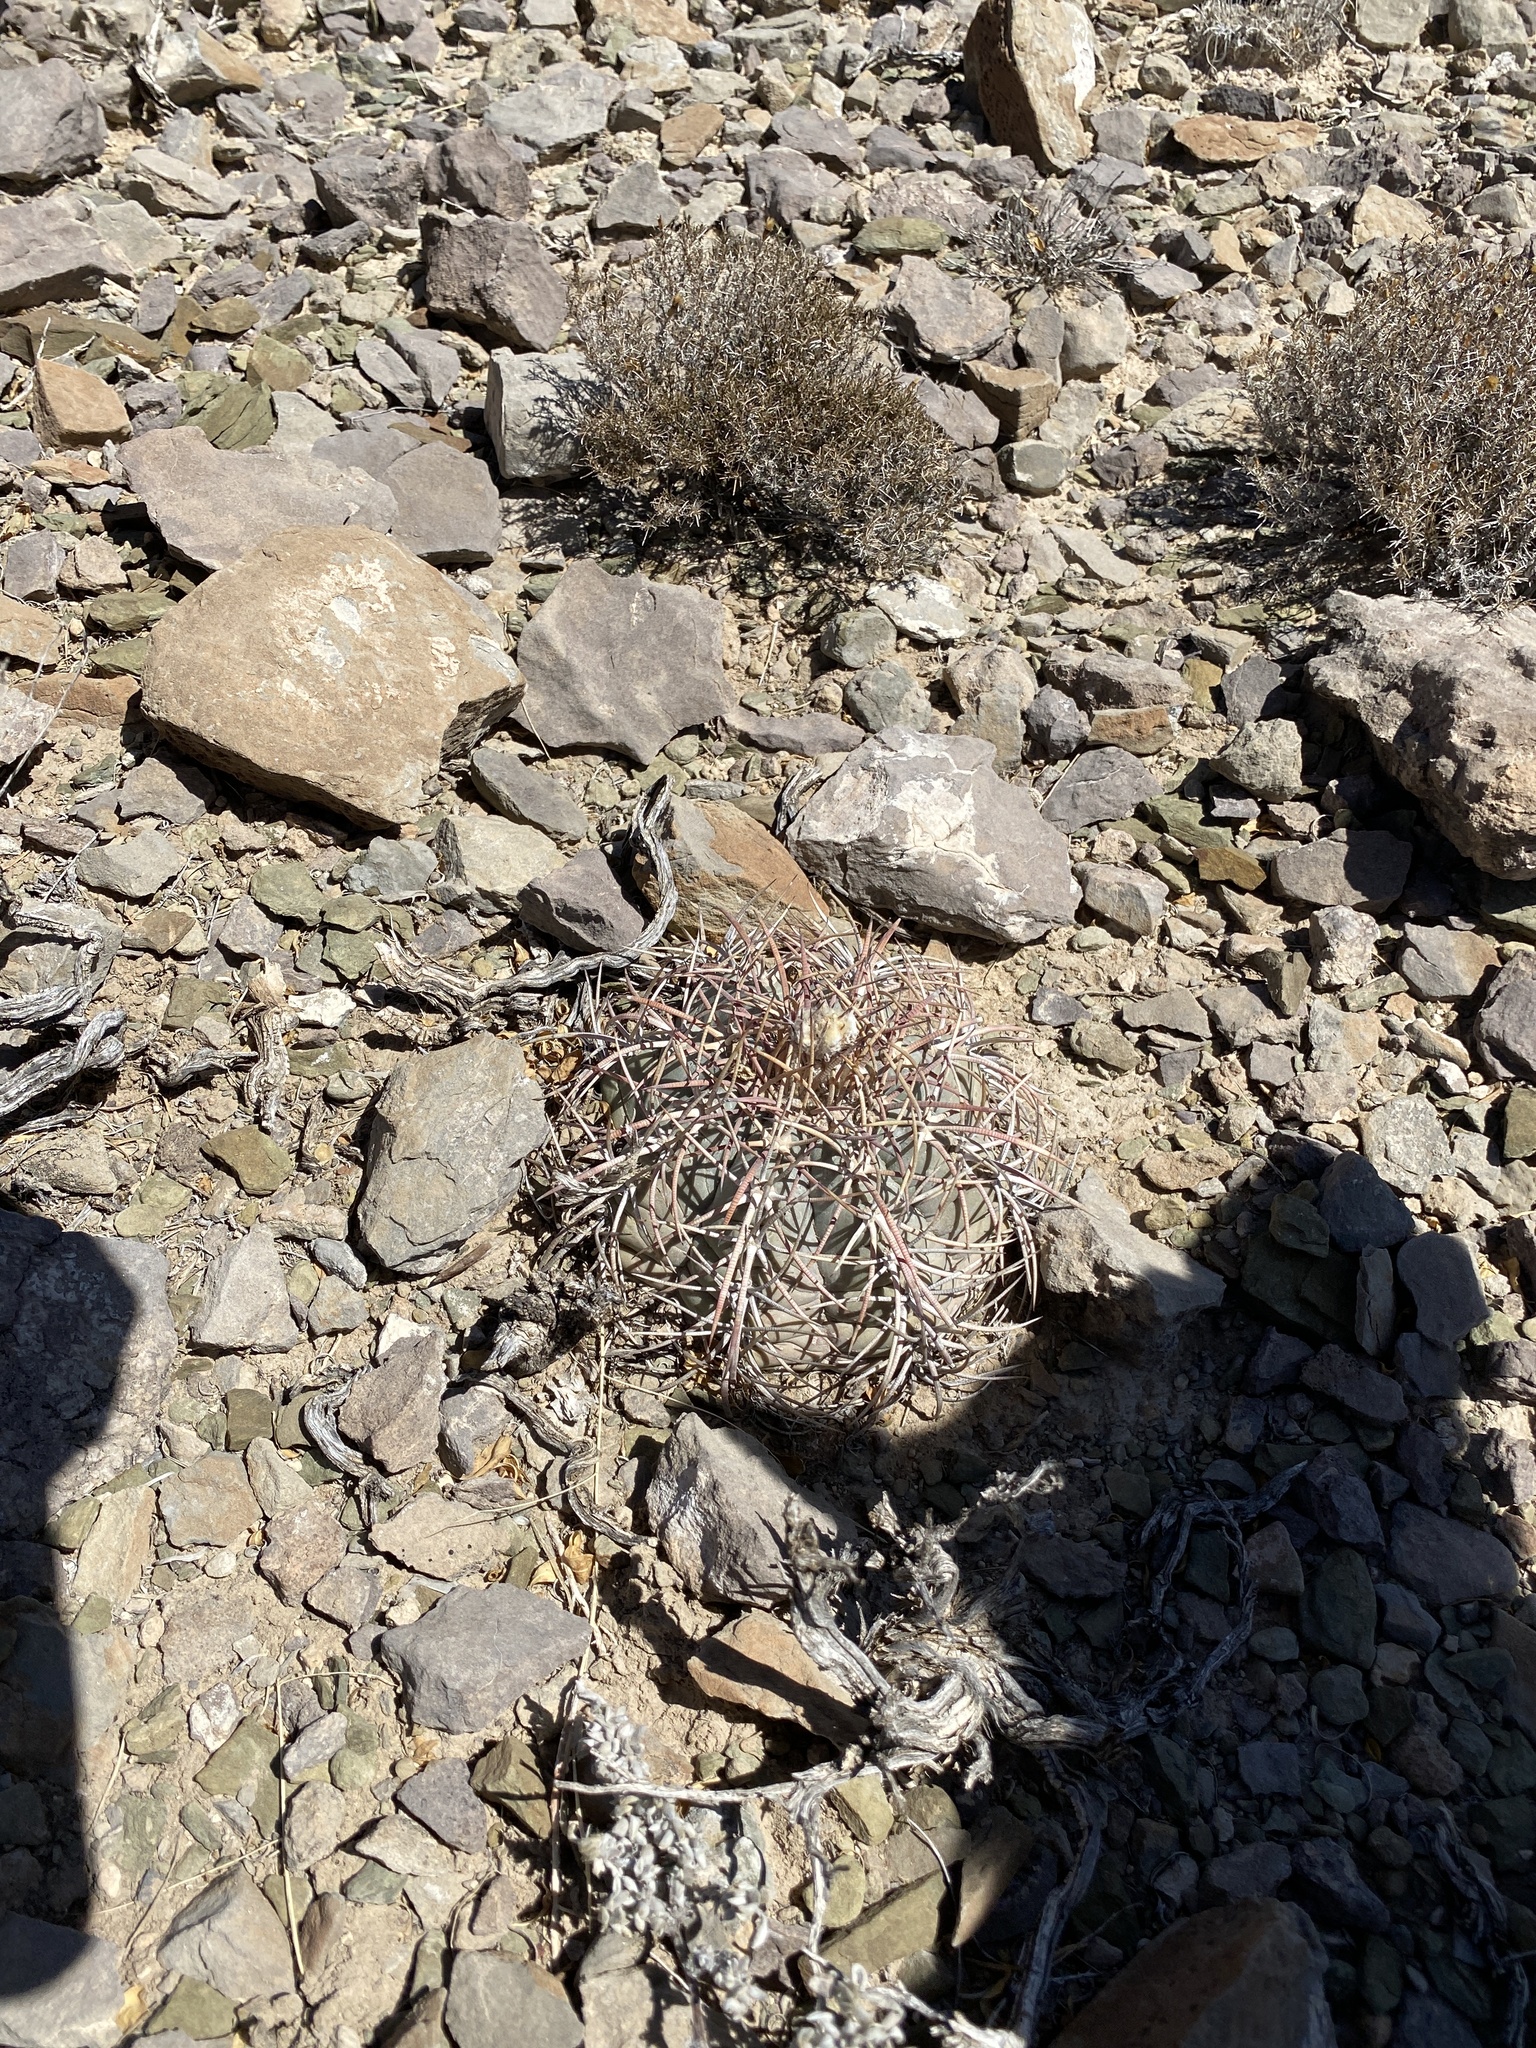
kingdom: Plantae
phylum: Tracheophyta
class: Magnoliopsida
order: Caryophyllales
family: Cactaceae
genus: Echinocactus
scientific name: Echinocactus horizonthalonius
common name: Devilshead
